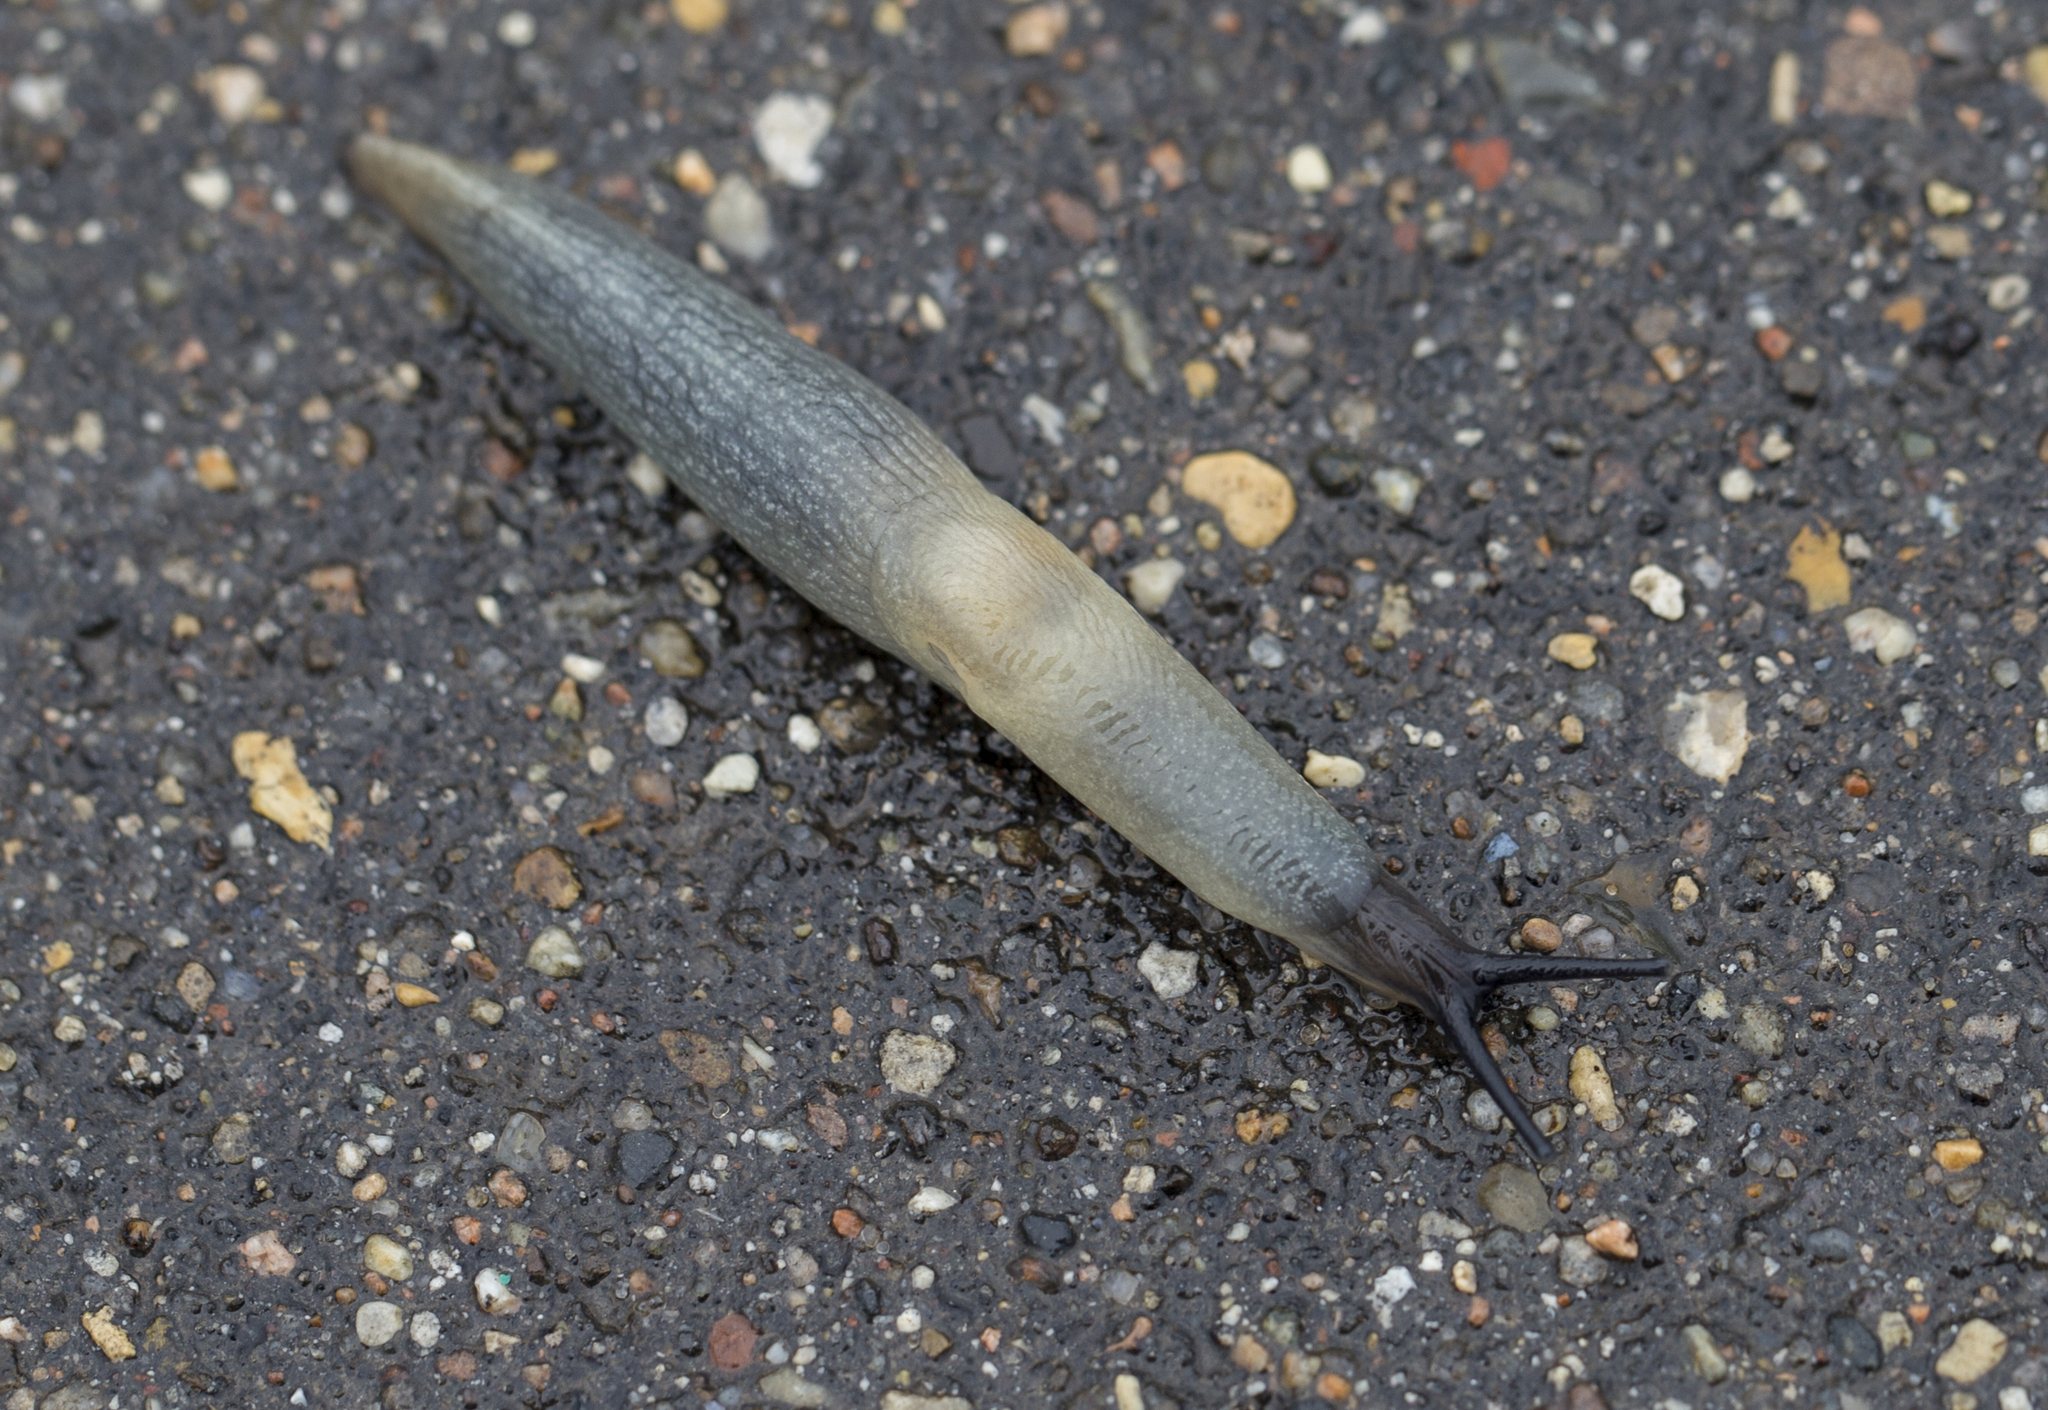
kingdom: Animalia
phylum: Mollusca
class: Gastropoda
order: Stylommatophora
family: Agriolimacidae
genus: Krynickillus
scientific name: Krynickillus melanocephalus
